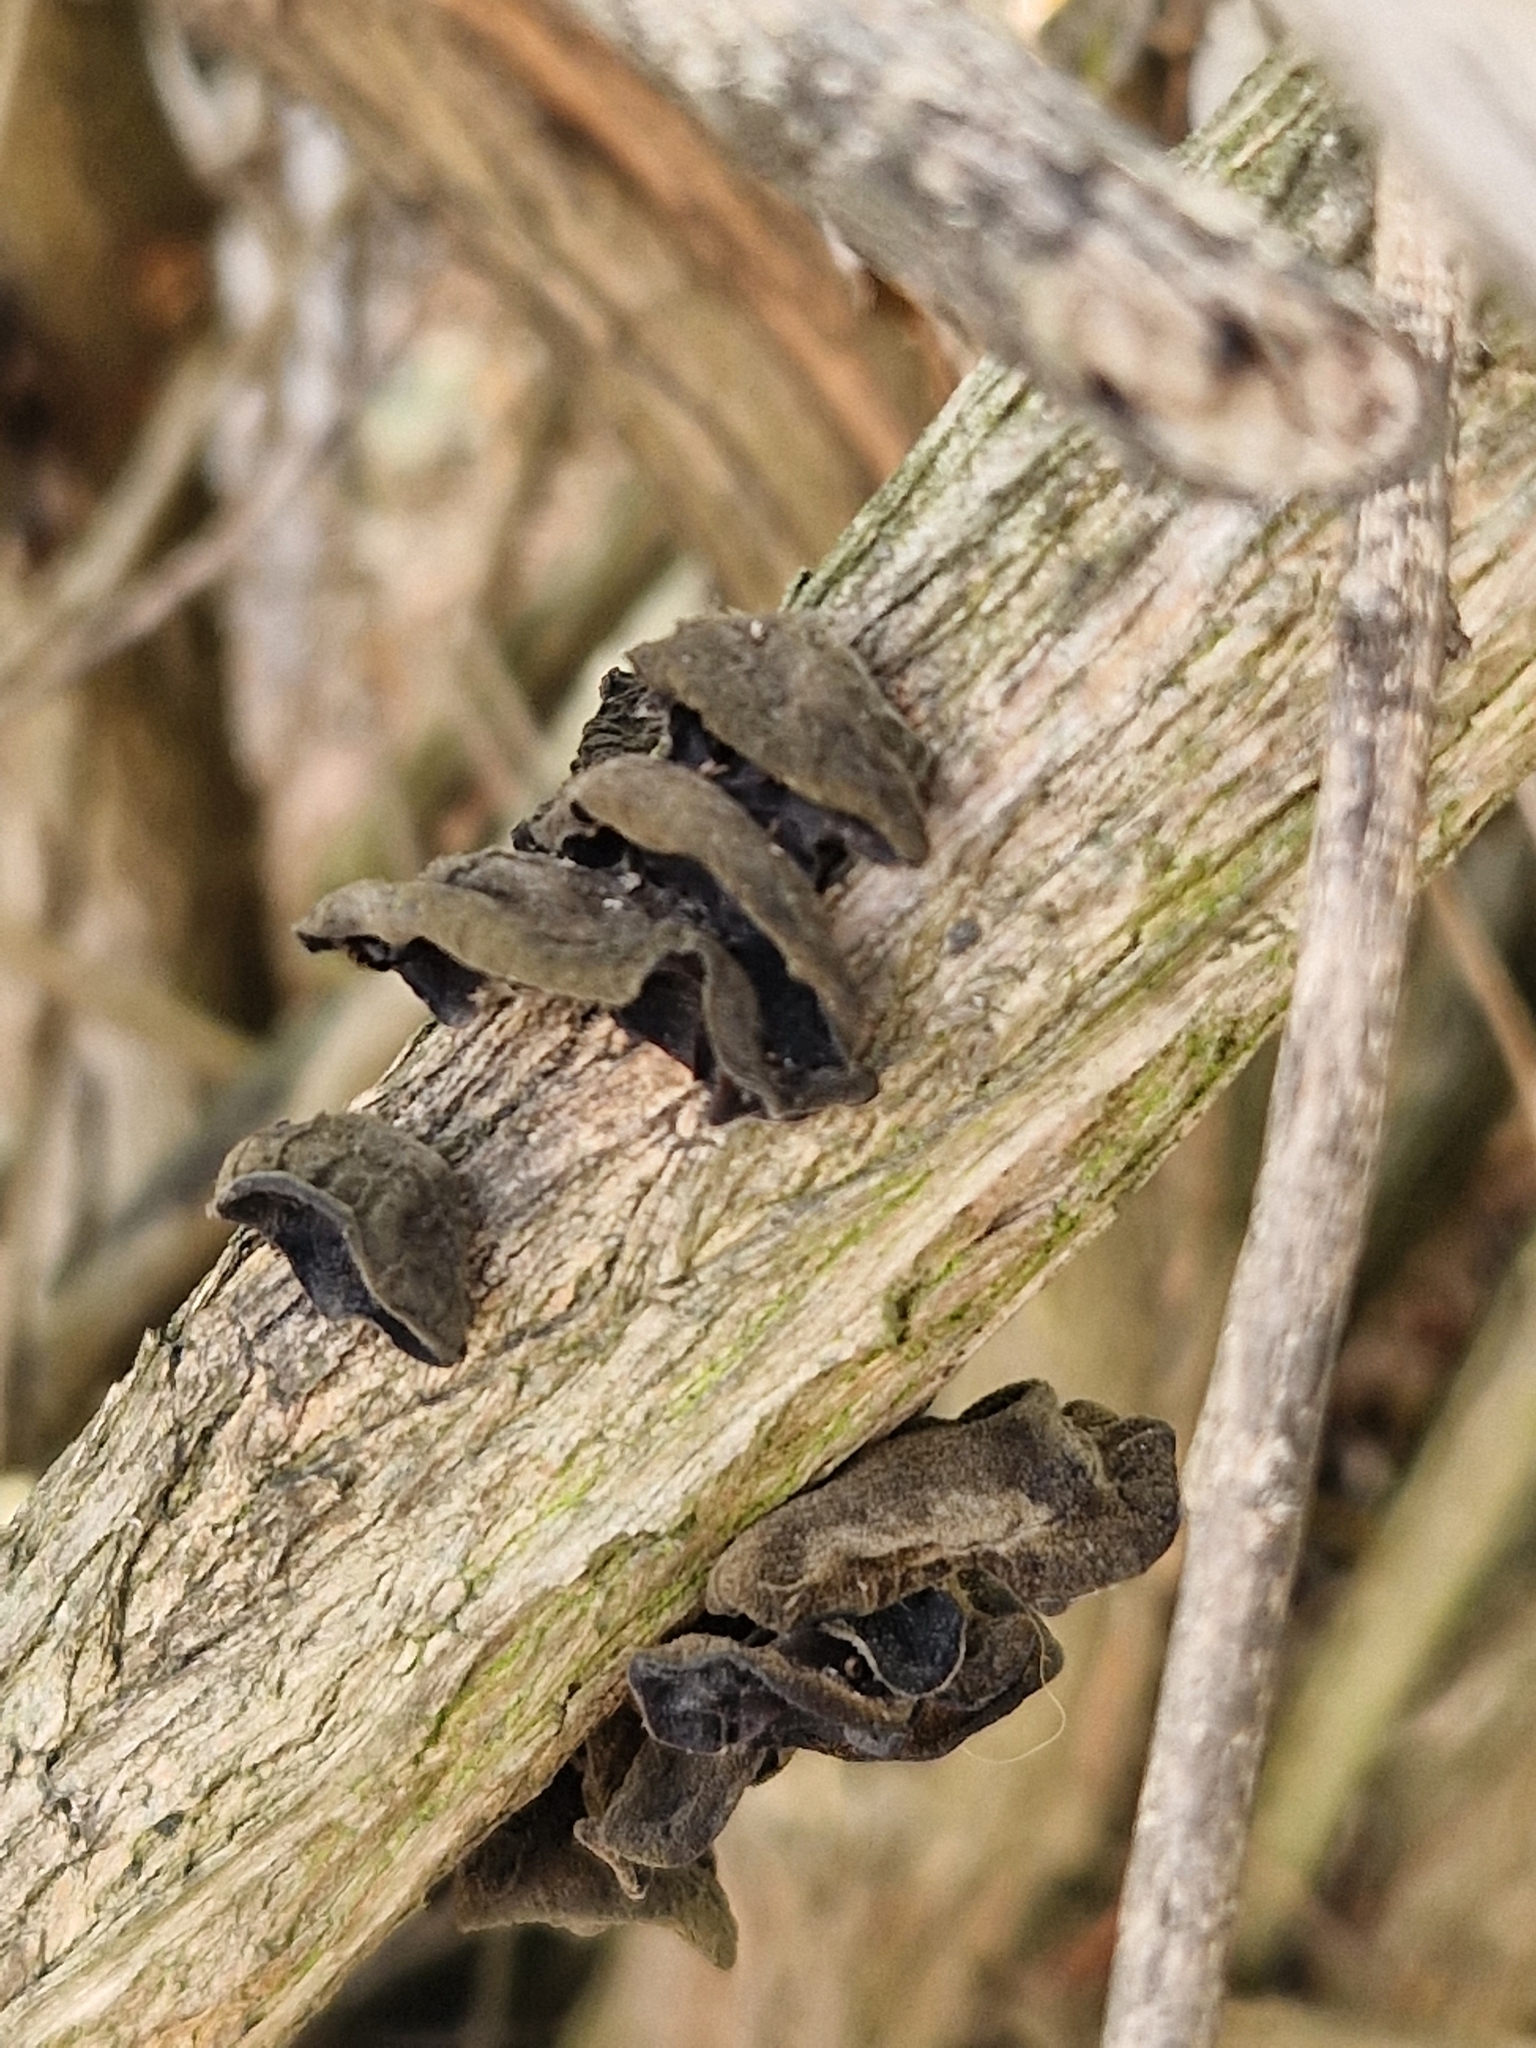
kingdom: Fungi
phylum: Basidiomycota
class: Agaricomycetes
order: Auriculariales
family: Auriculariaceae
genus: Auricularia
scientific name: Auricularia auricula-judae
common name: Jelly ear
